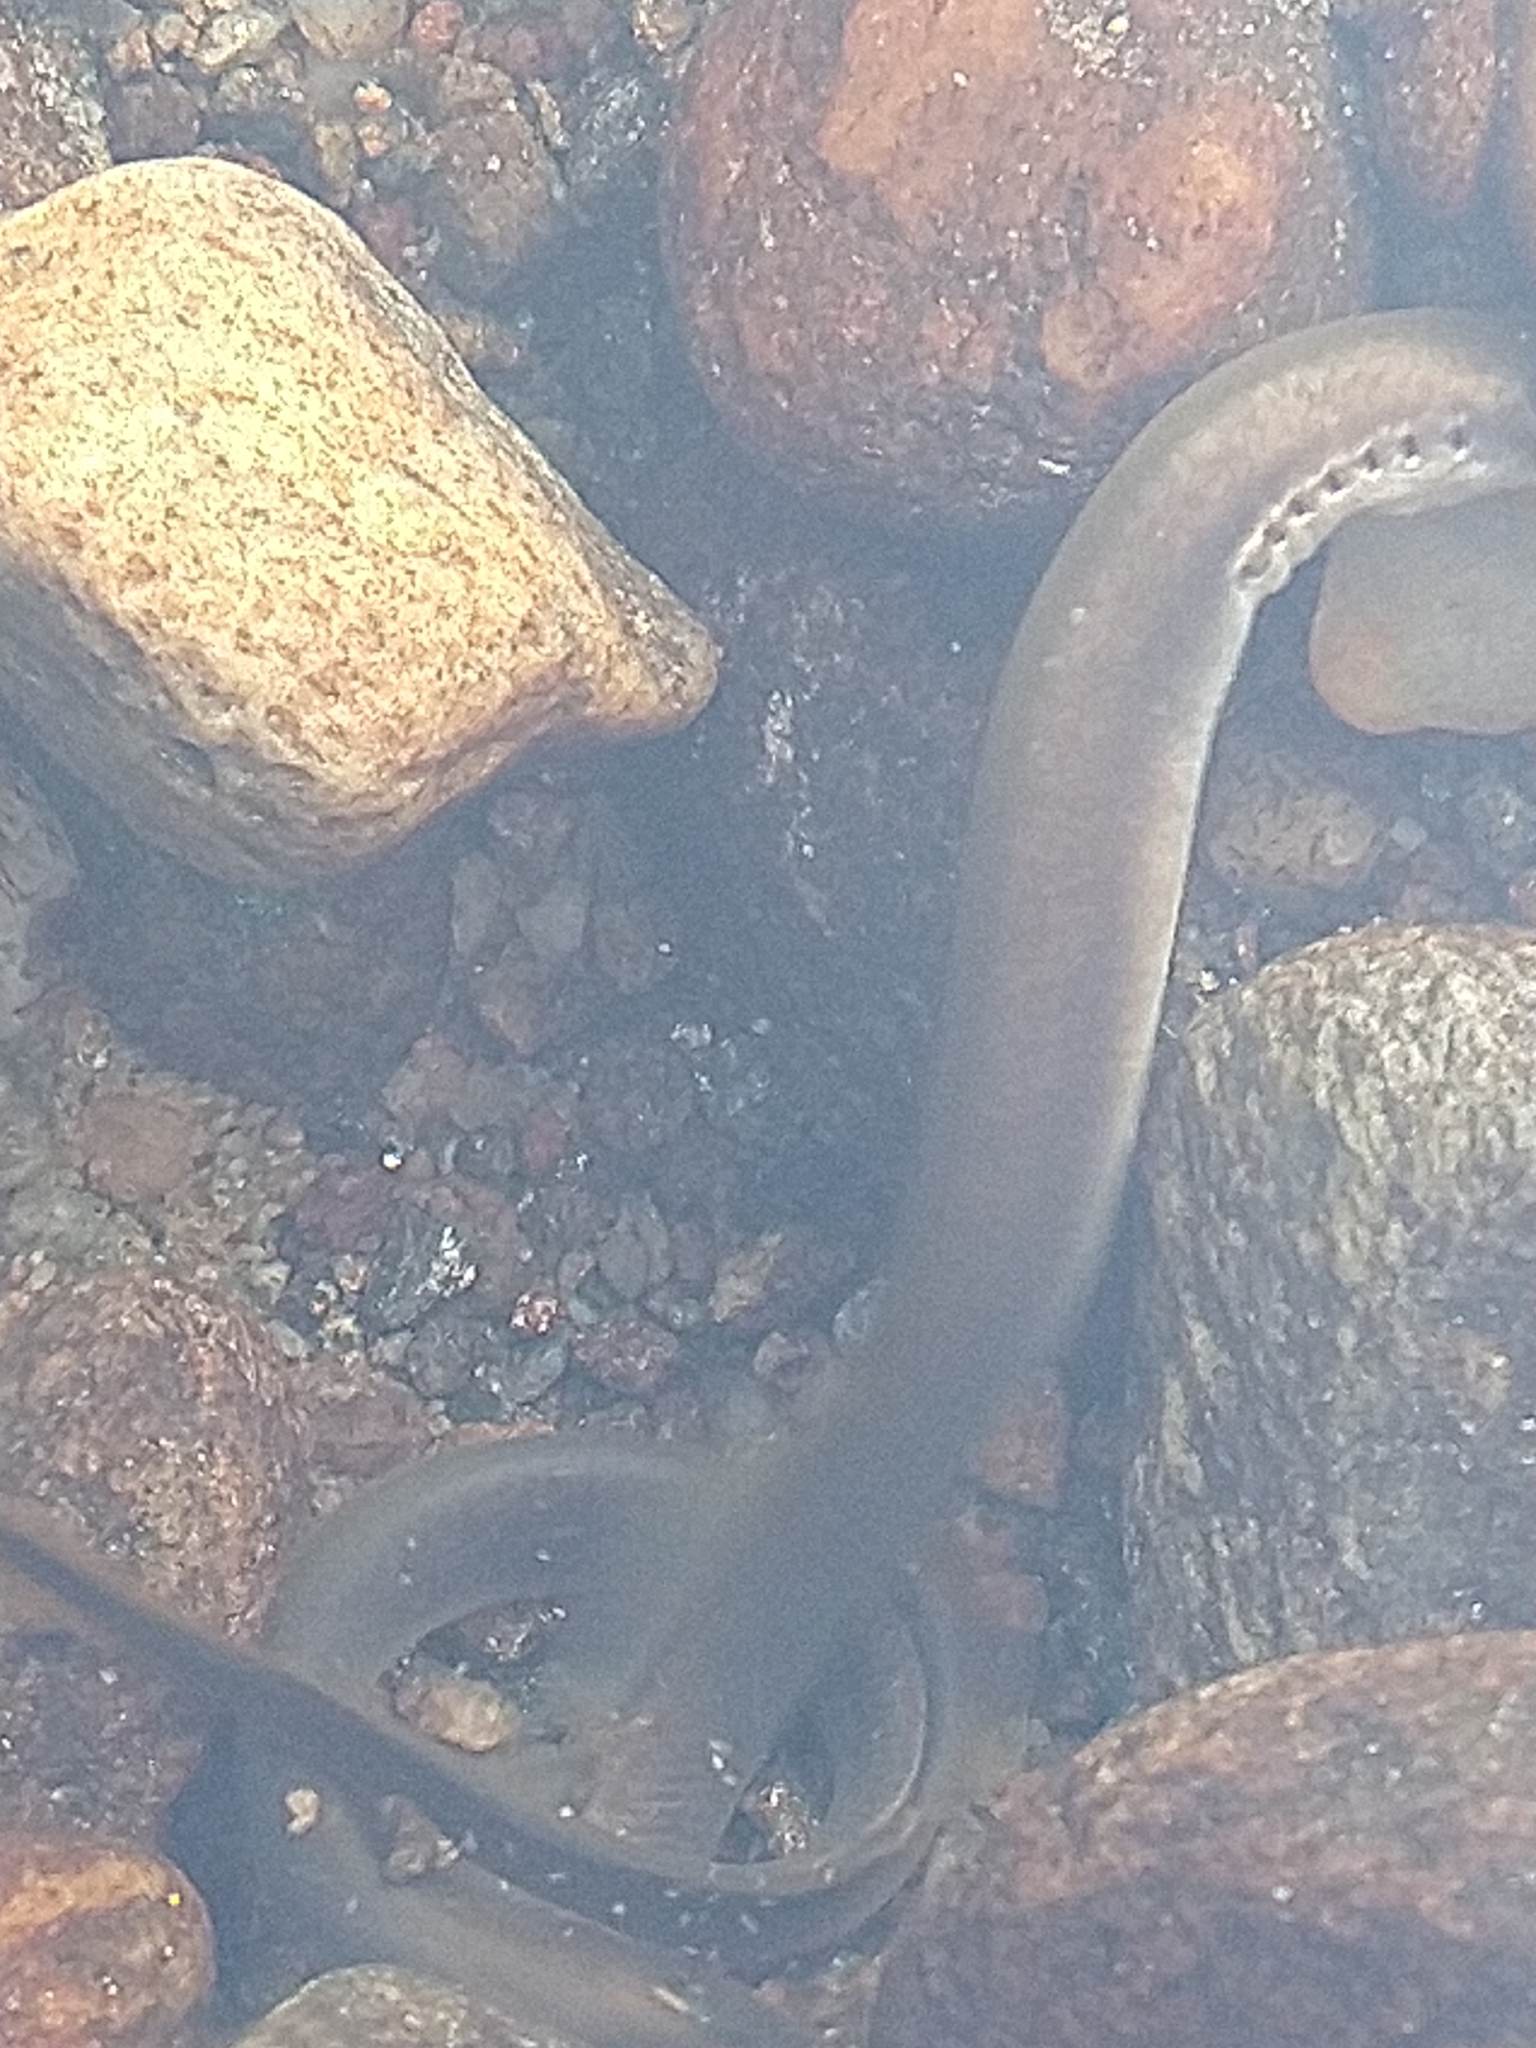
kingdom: Animalia
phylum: Chordata
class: Petromyzonti
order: Petromyzontiformes
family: Petromyzontidae
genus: Lampetra
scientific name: Lampetra planeri
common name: Brook lamprey
